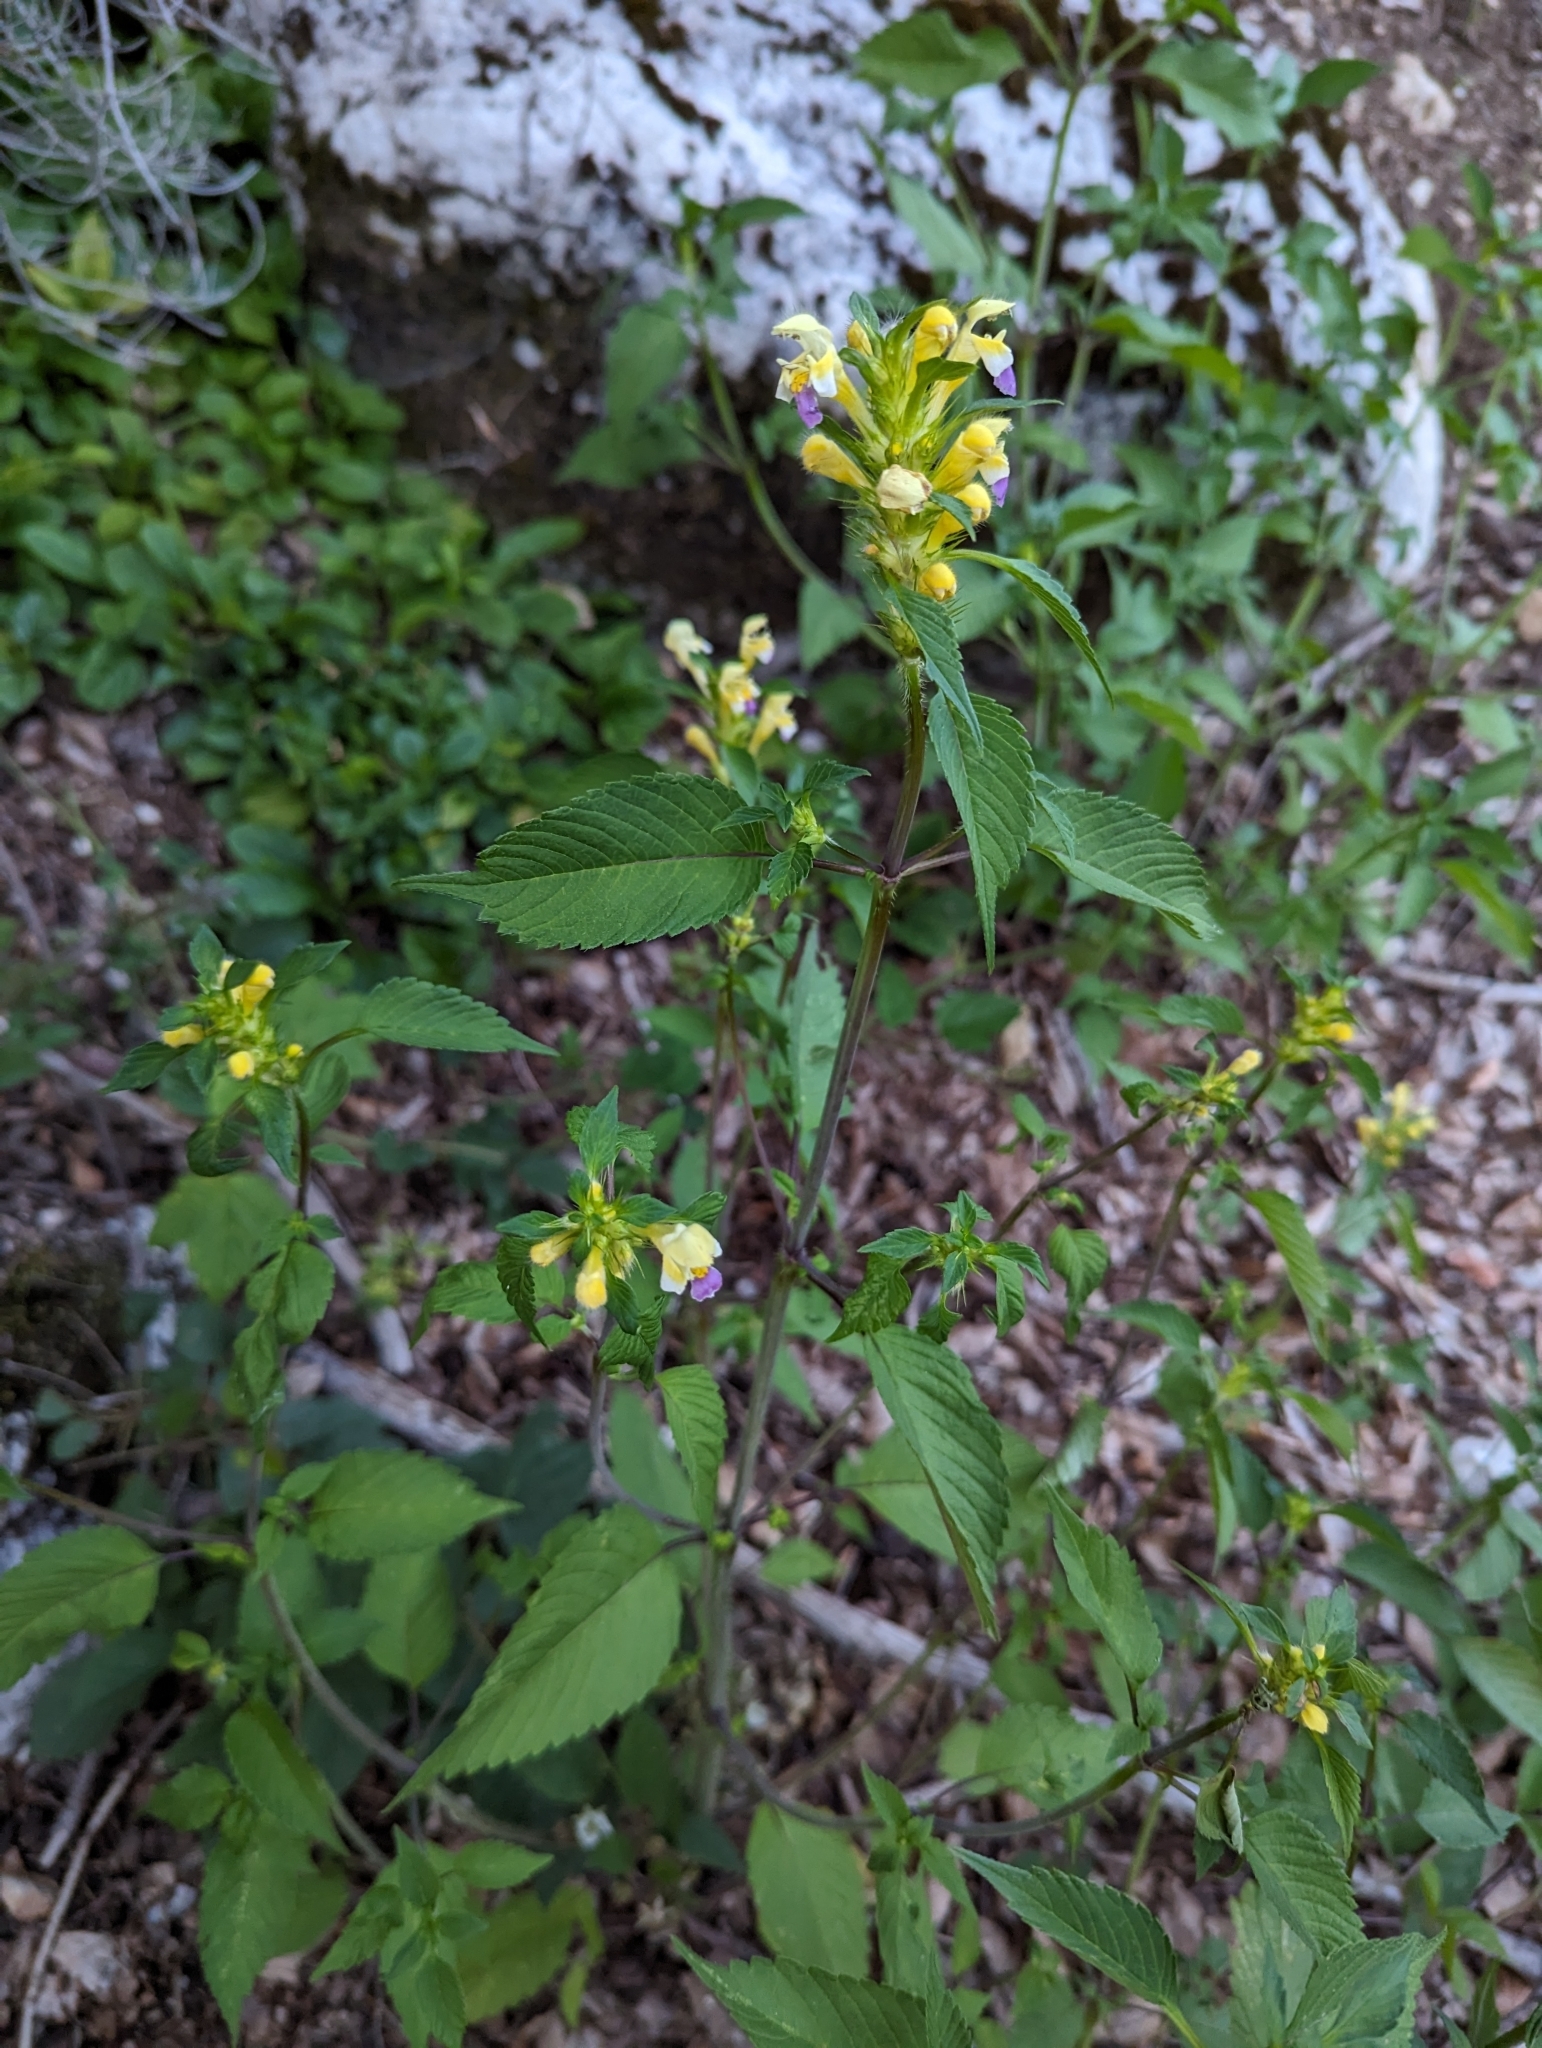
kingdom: Plantae
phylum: Tracheophyta
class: Magnoliopsida
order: Lamiales
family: Lamiaceae
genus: Galeopsis
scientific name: Galeopsis speciosa
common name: Large-flowered hemp-nettle
